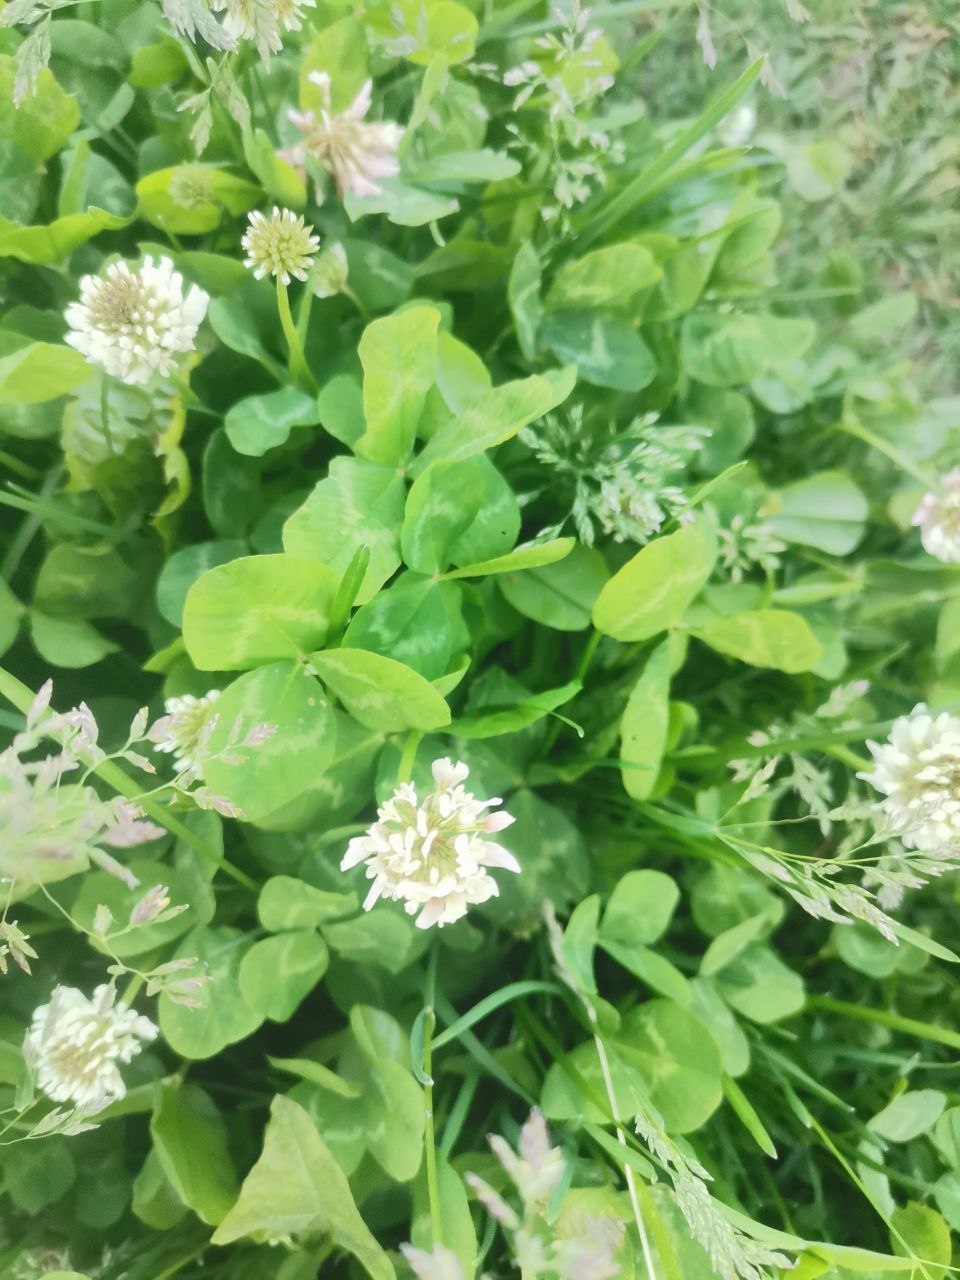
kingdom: Plantae
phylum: Tracheophyta
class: Magnoliopsida
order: Fabales
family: Fabaceae
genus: Trifolium
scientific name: Trifolium repens
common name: White clover
